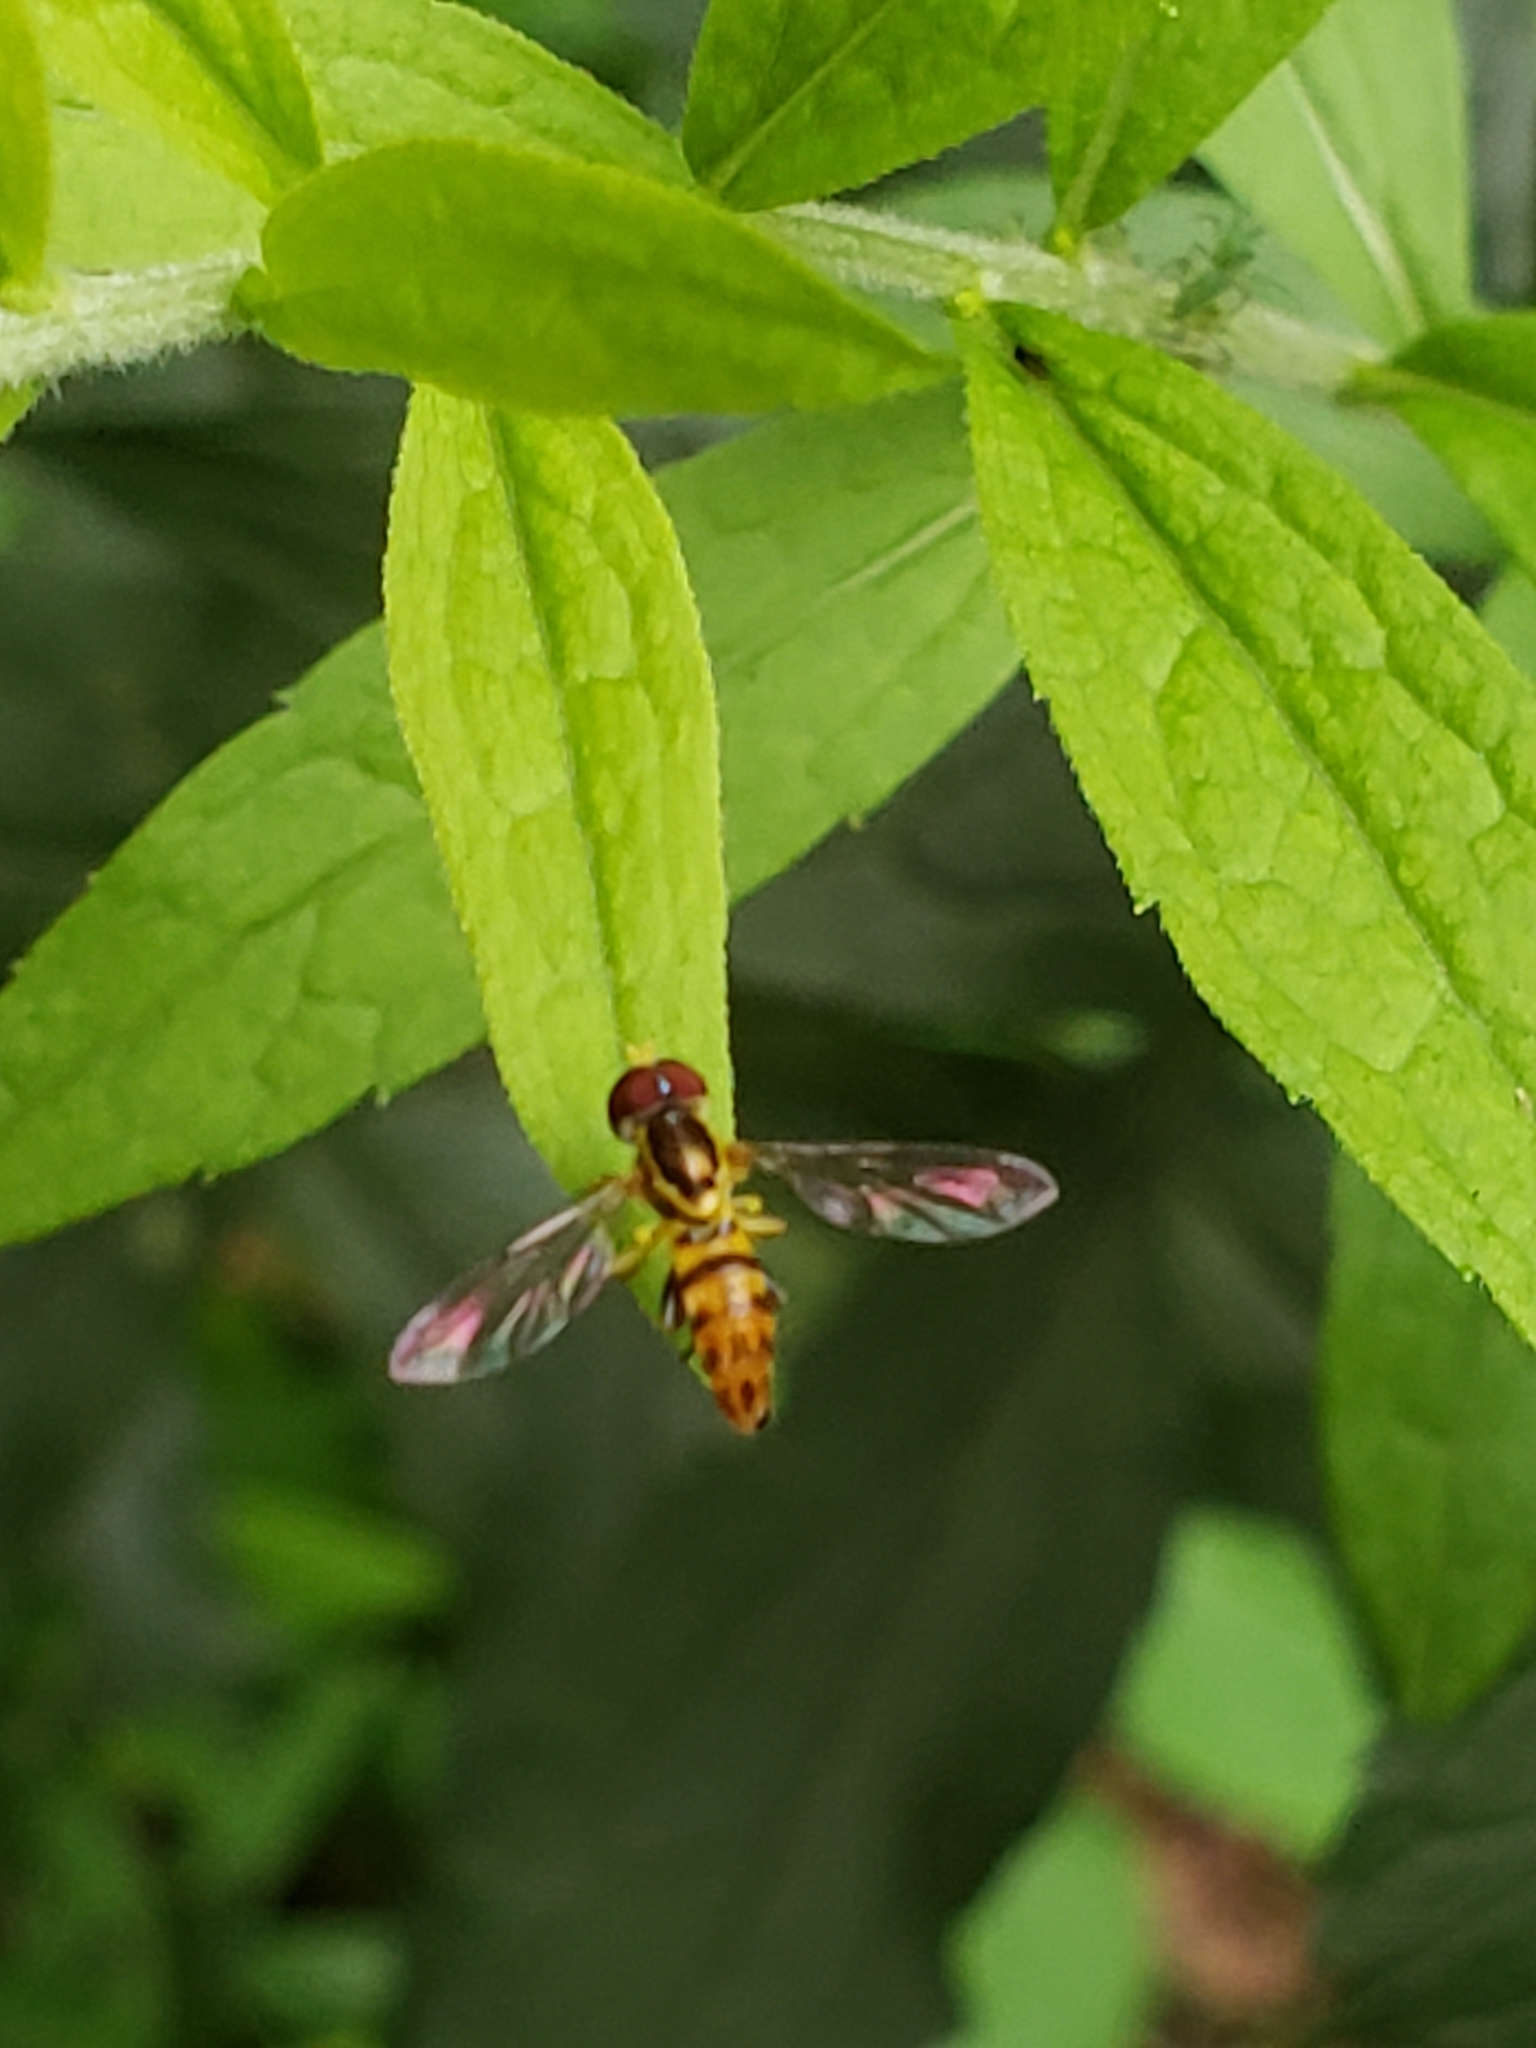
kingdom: Animalia
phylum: Arthropoda
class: Insecta
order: Diptera
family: Syrphidae
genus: Toxomerus
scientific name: Toxomerus geminatus
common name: Eastern calligrapher
